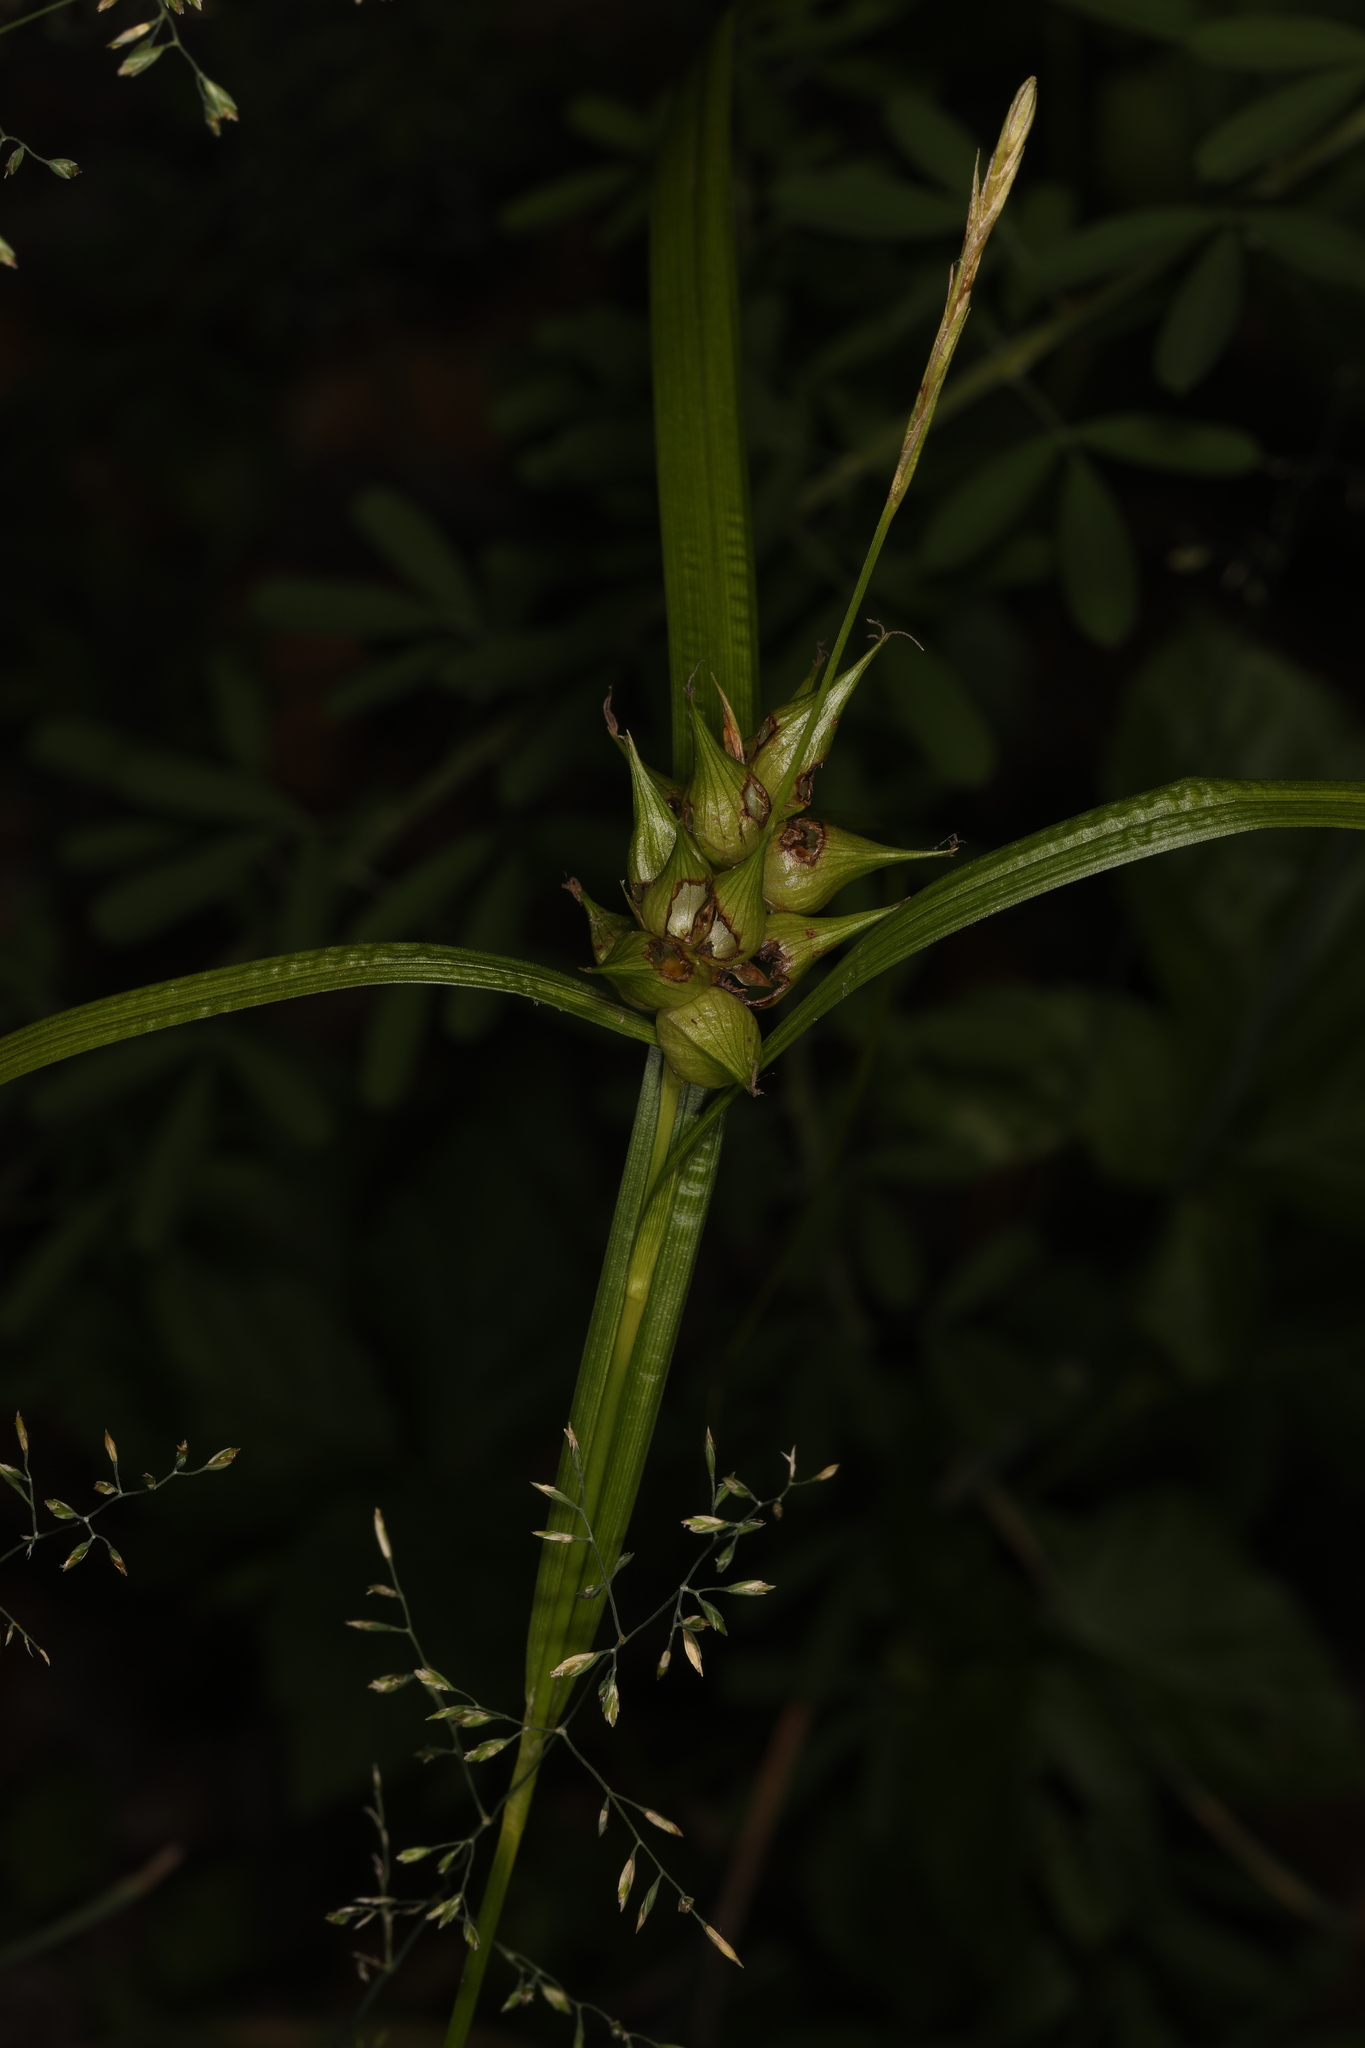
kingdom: Plantae
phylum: Tracheophyta
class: Liliopsida
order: Poales
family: Cyperaceae
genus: Carex
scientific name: Carex intumescens
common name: Greater bladder sedge
